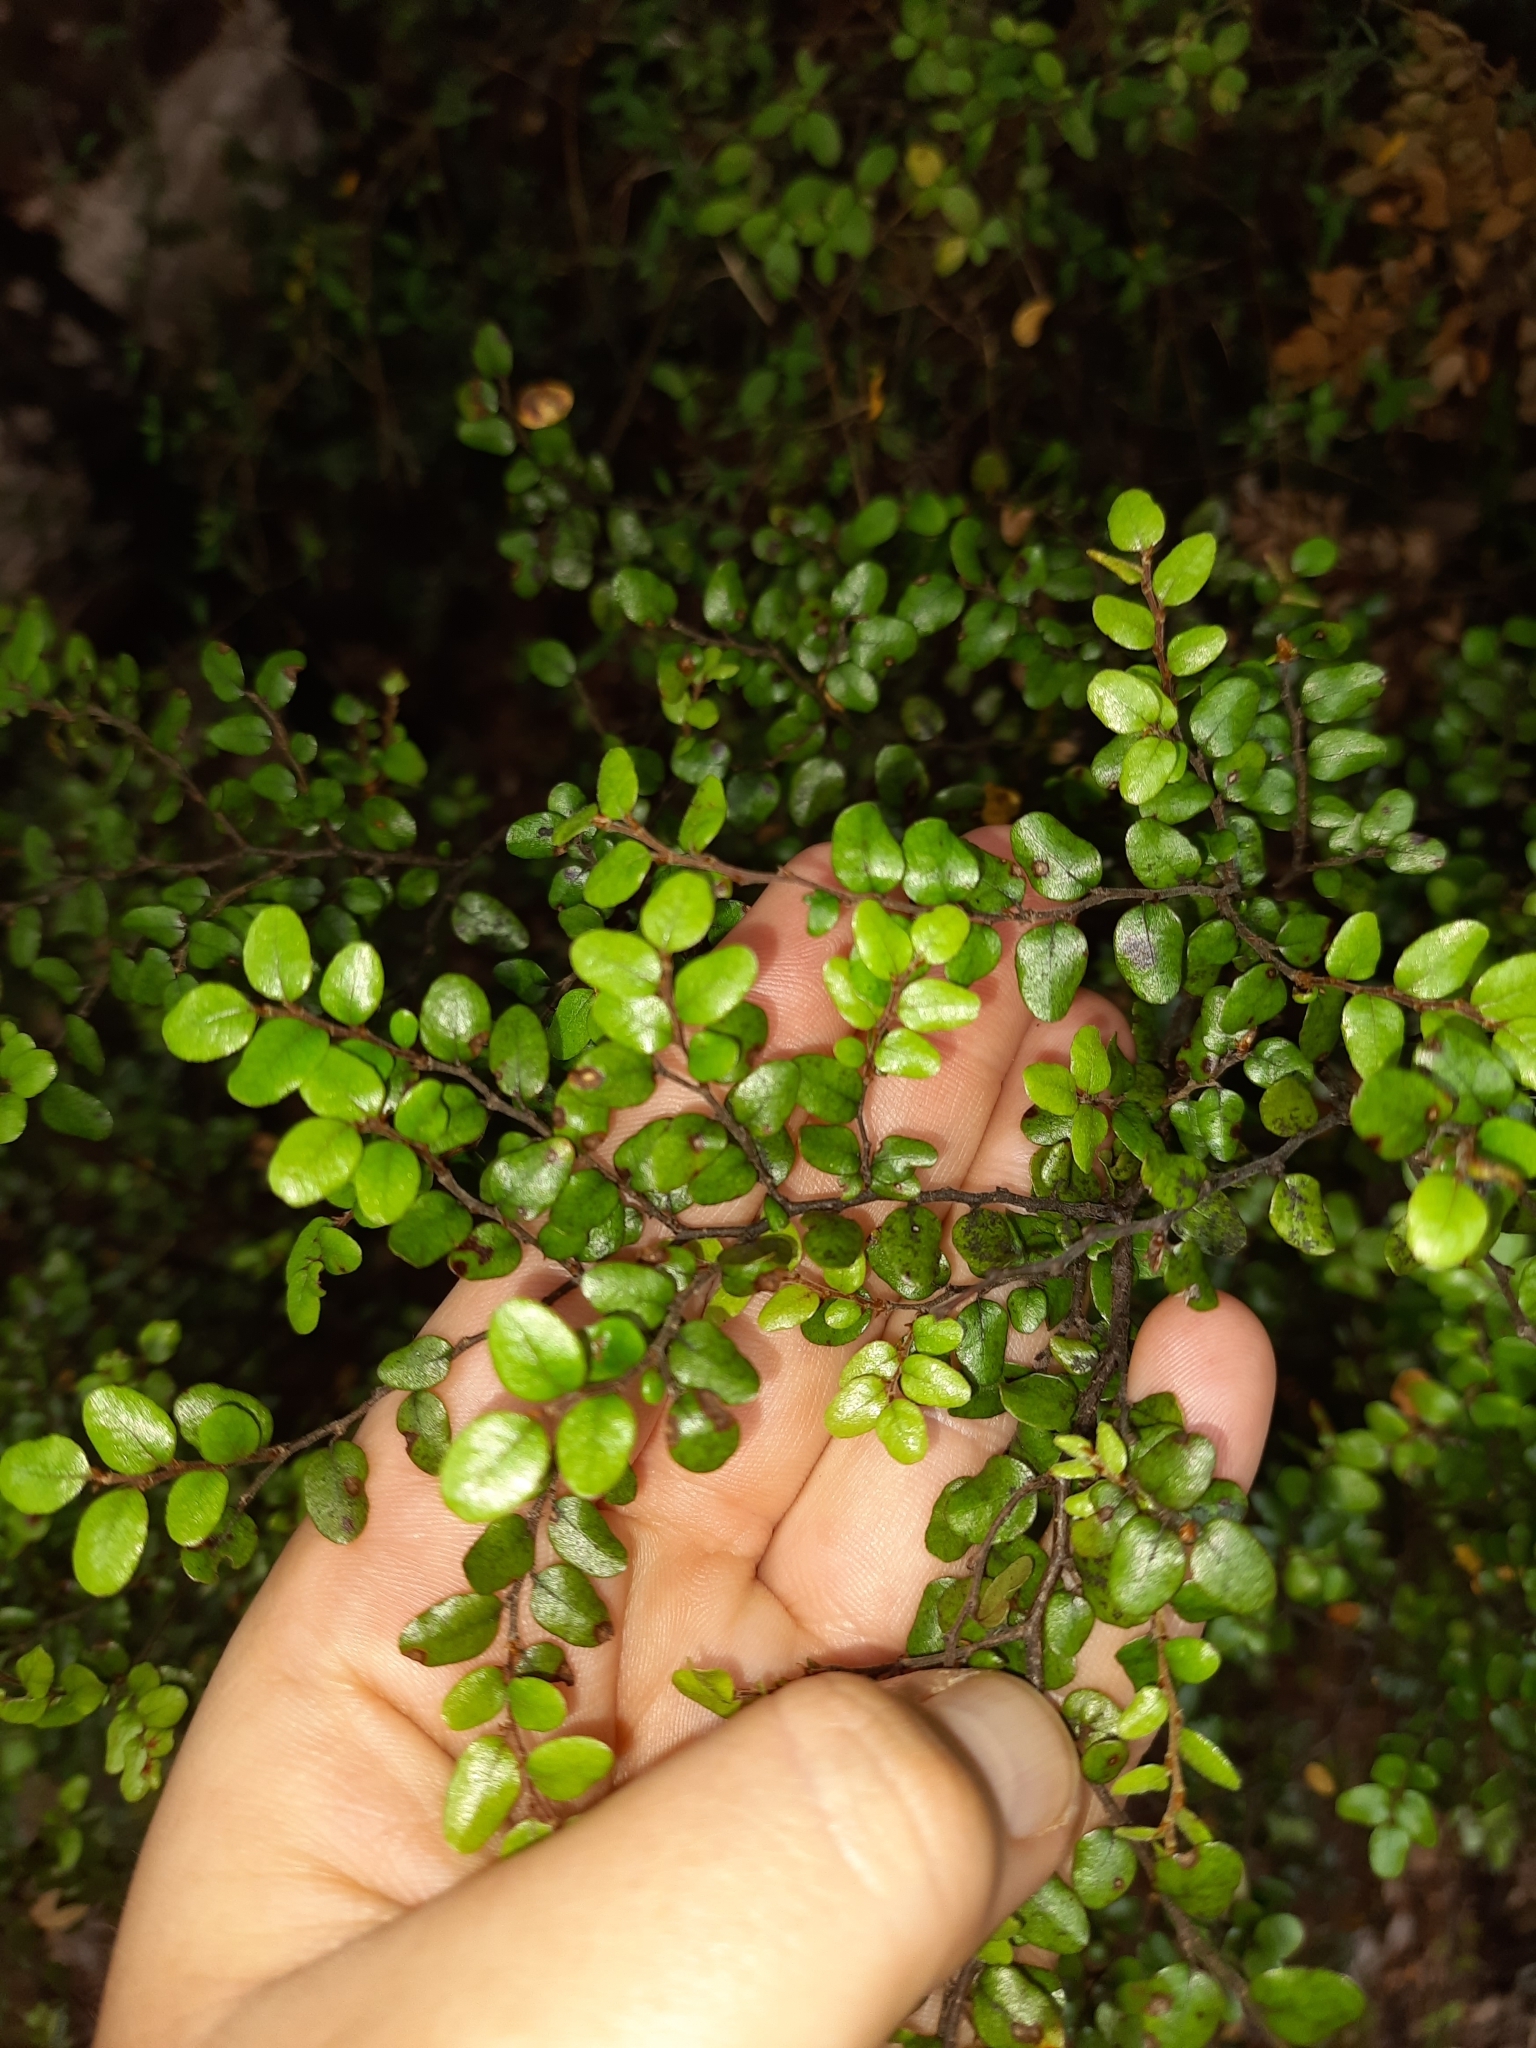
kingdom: Plantae
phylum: Tracheophyta
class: Magnoliopsida
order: Fagales
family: Nothofagaceae
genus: Nothofagus
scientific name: Nothofagus cliffortioides
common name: Mountain beech
